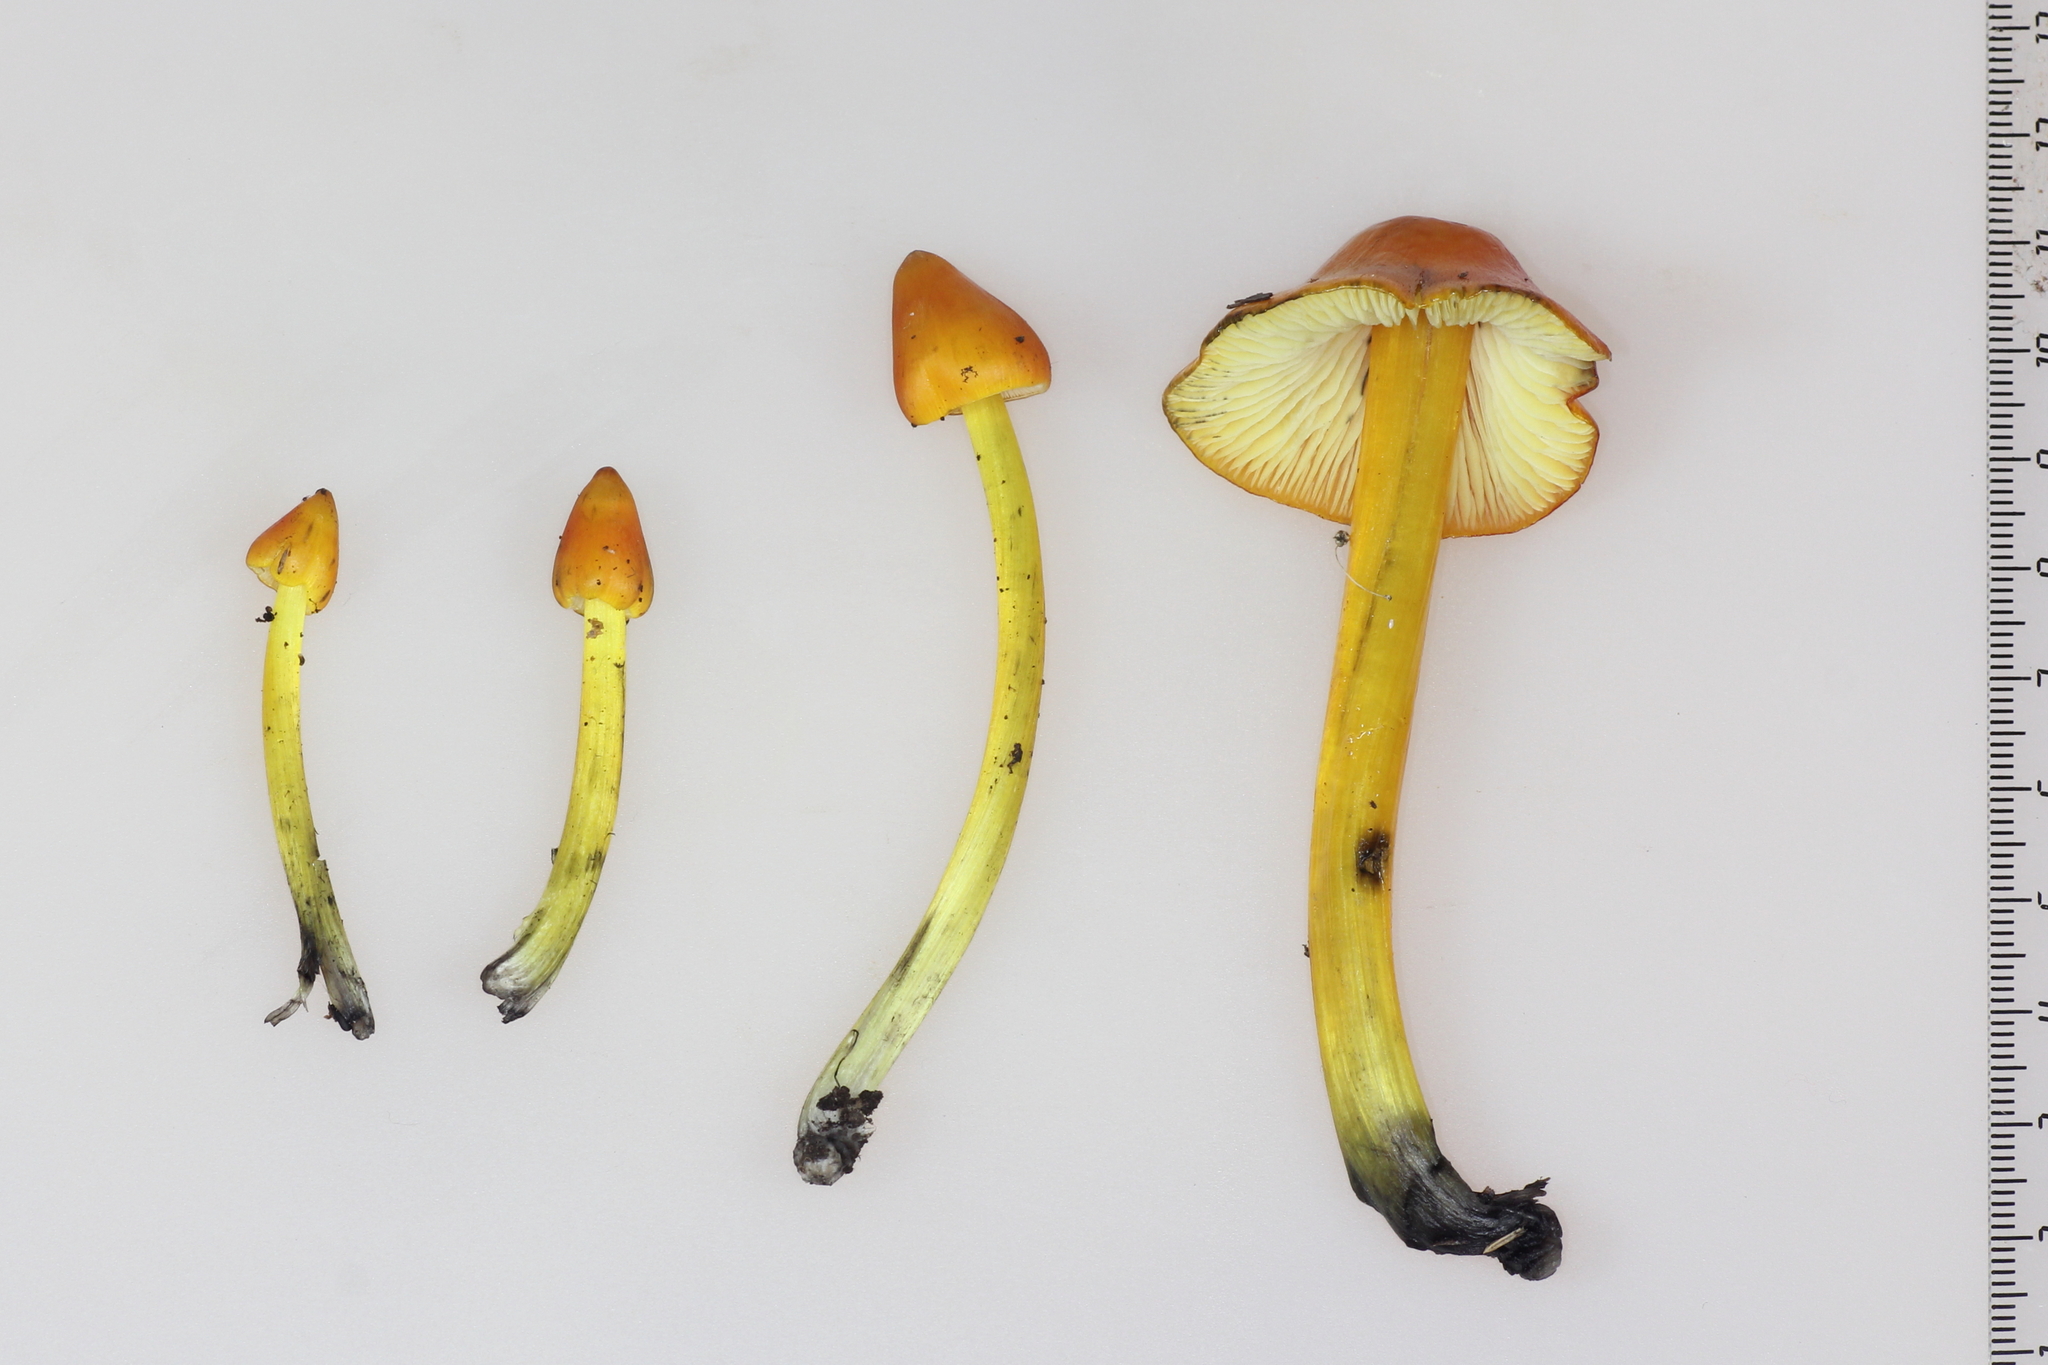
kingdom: Fungi
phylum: Basidiomycota
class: Agaricomycetes
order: Agaricales
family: Hygrophoraceae
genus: Hygrocybe
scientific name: Hygrocybe conica
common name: Blackening wax-cap
